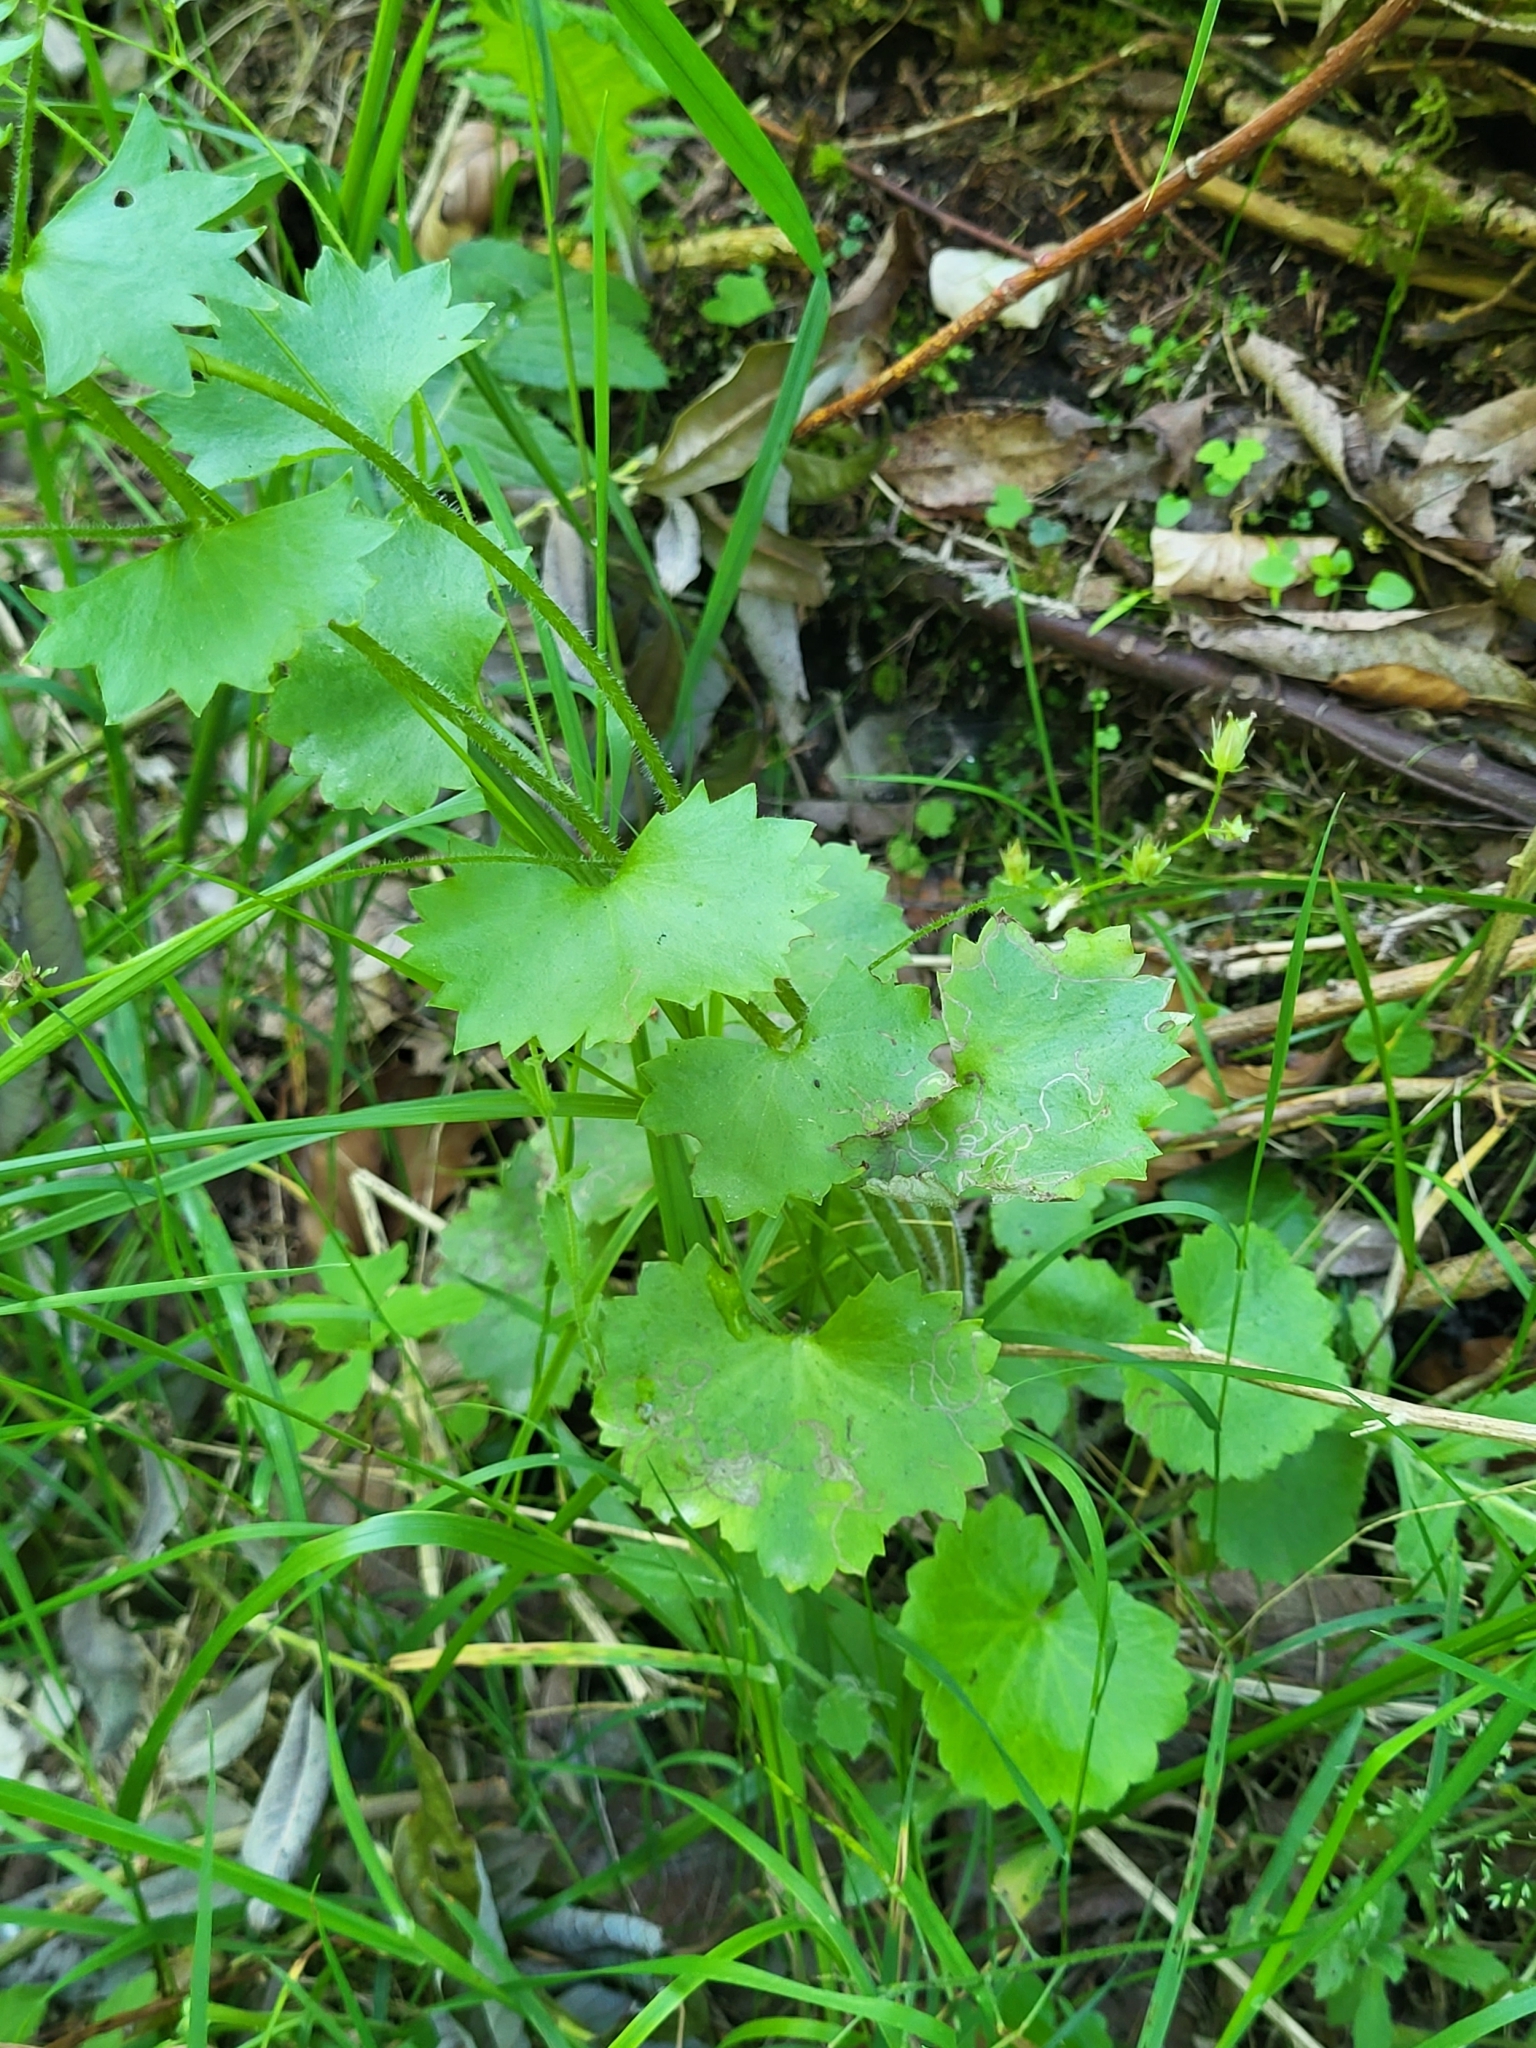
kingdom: Plantae
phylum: Tracheophyta
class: Magnoliopsida
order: Saxifragales
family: Saxifragaceae
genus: Saxifraga
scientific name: Saxifraga rotundifolia
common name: Round-leaved saxifrage
